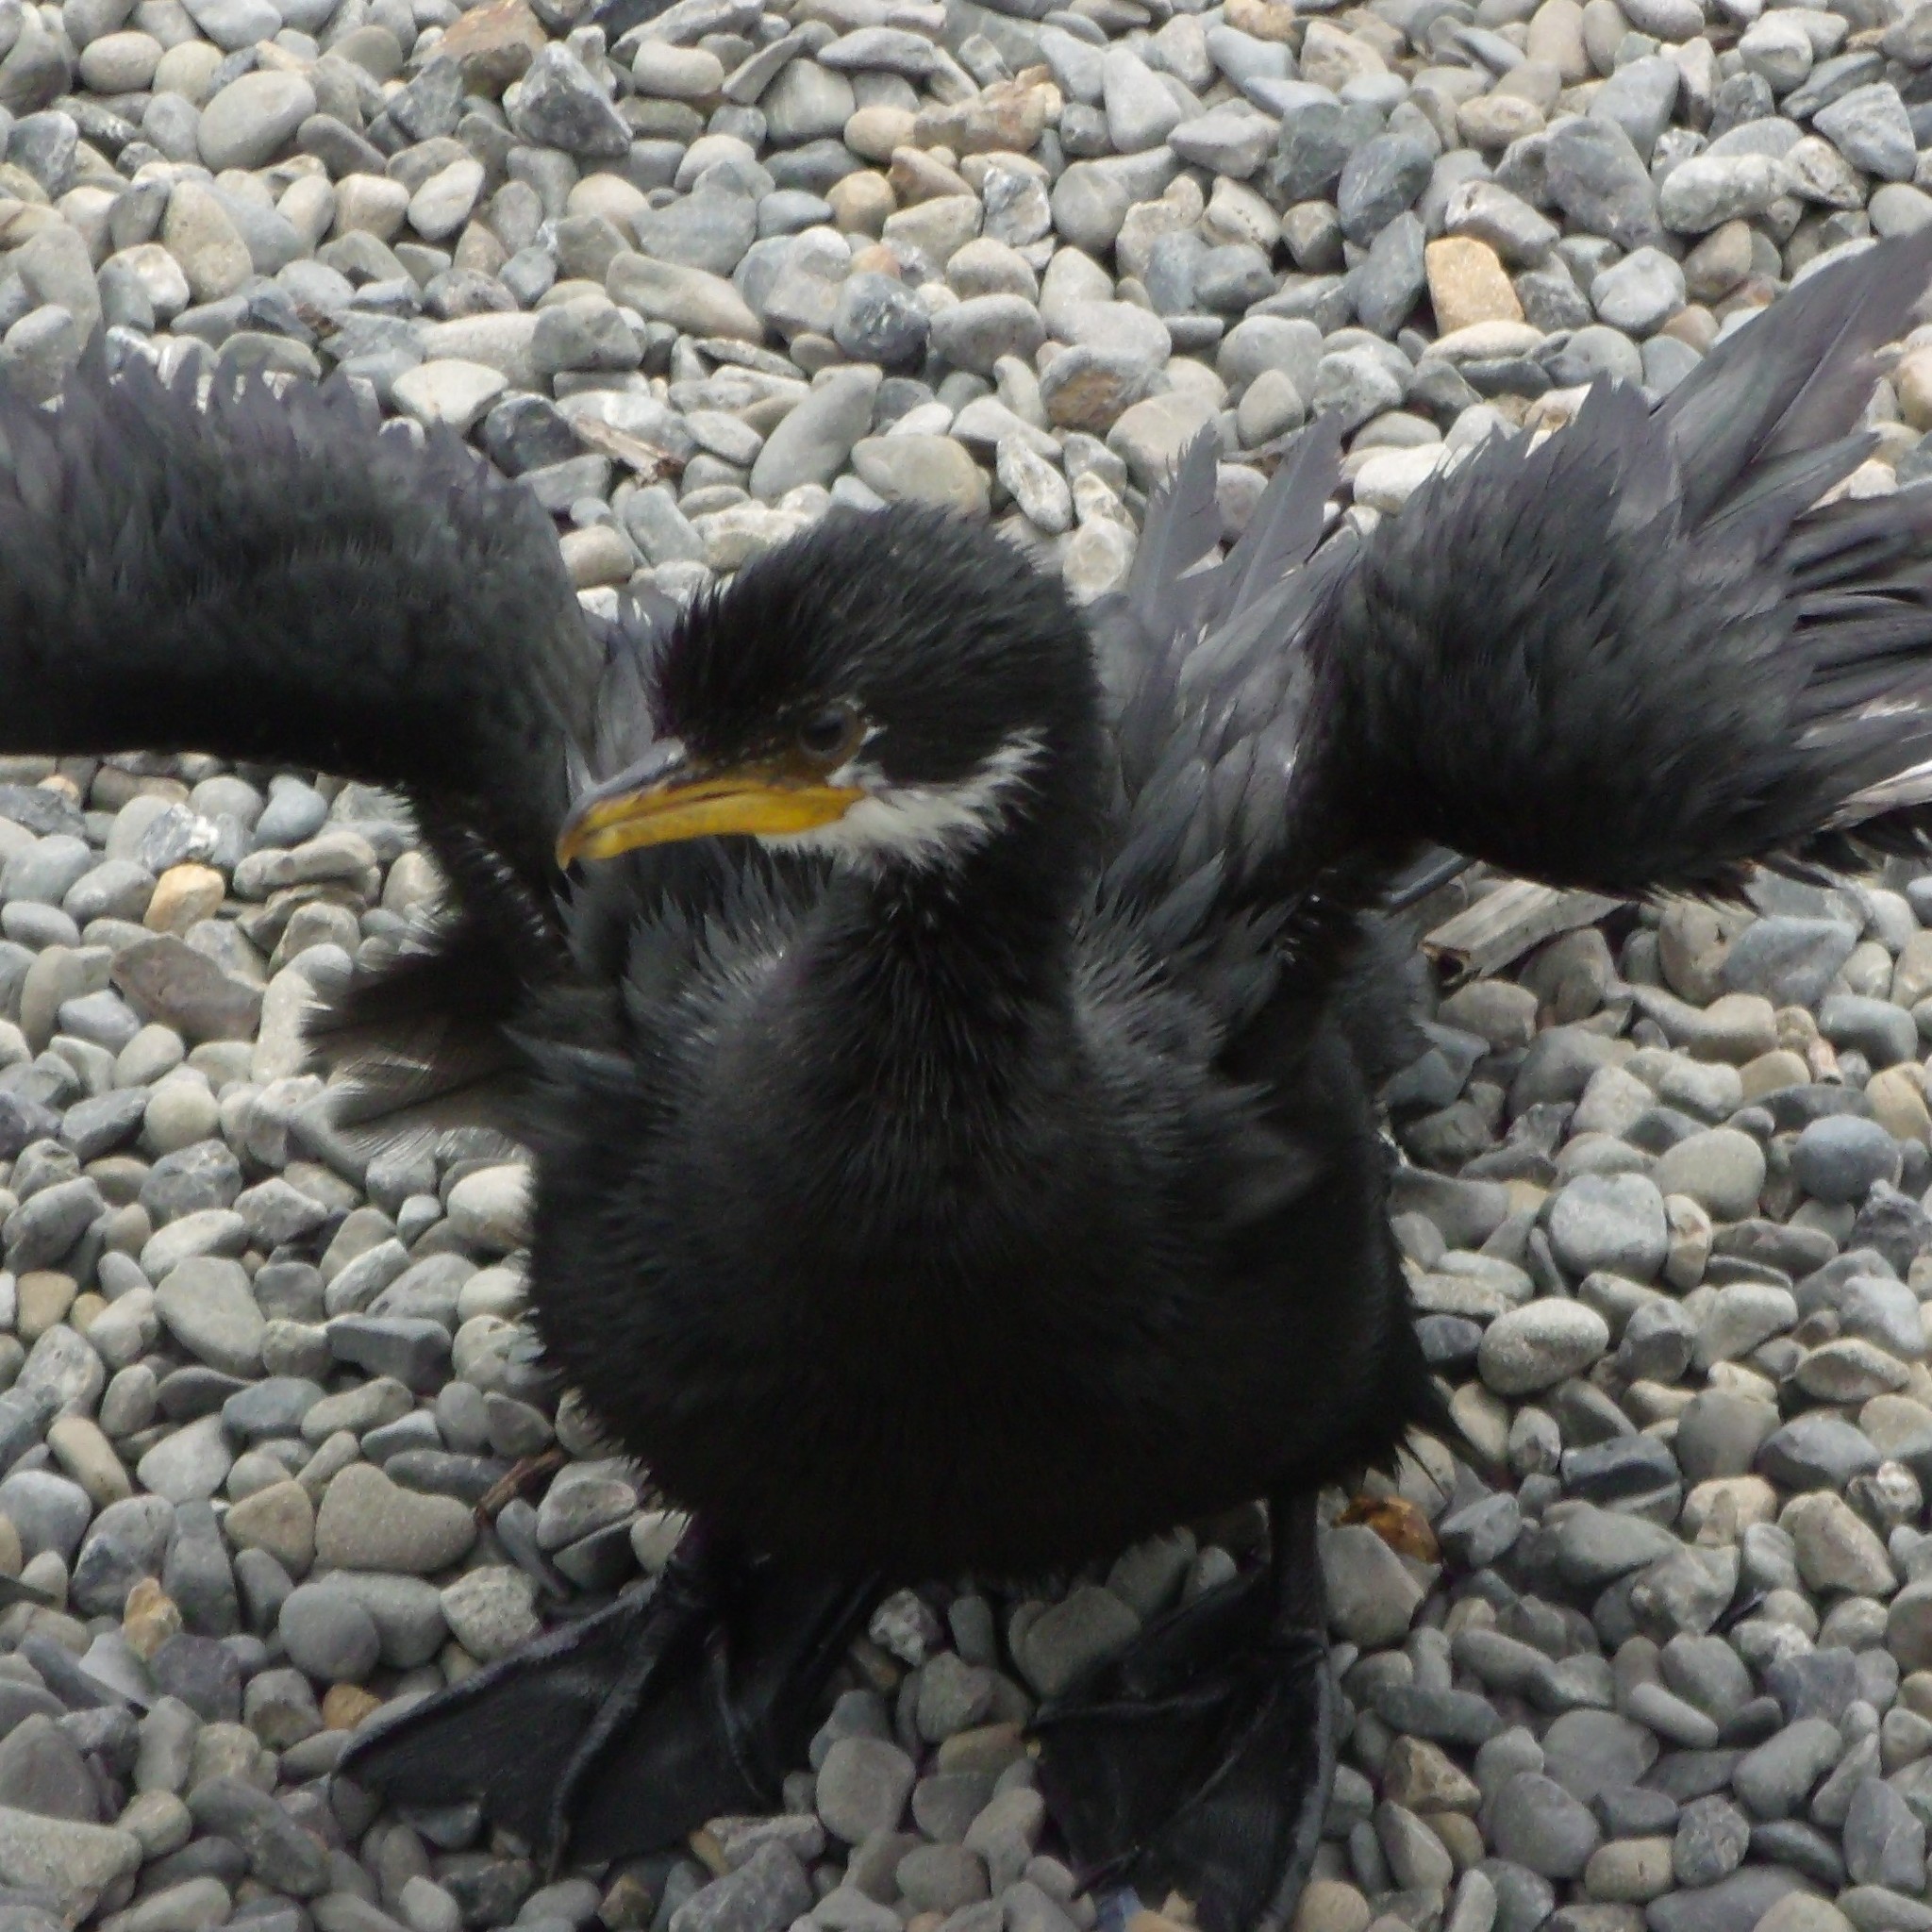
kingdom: Animalia
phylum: Chordata
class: Aves
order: Suliformes
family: Phalacrocoracidae
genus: Microcarbo
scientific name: Microcarbo melanoleucos
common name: Little pied cormorant
